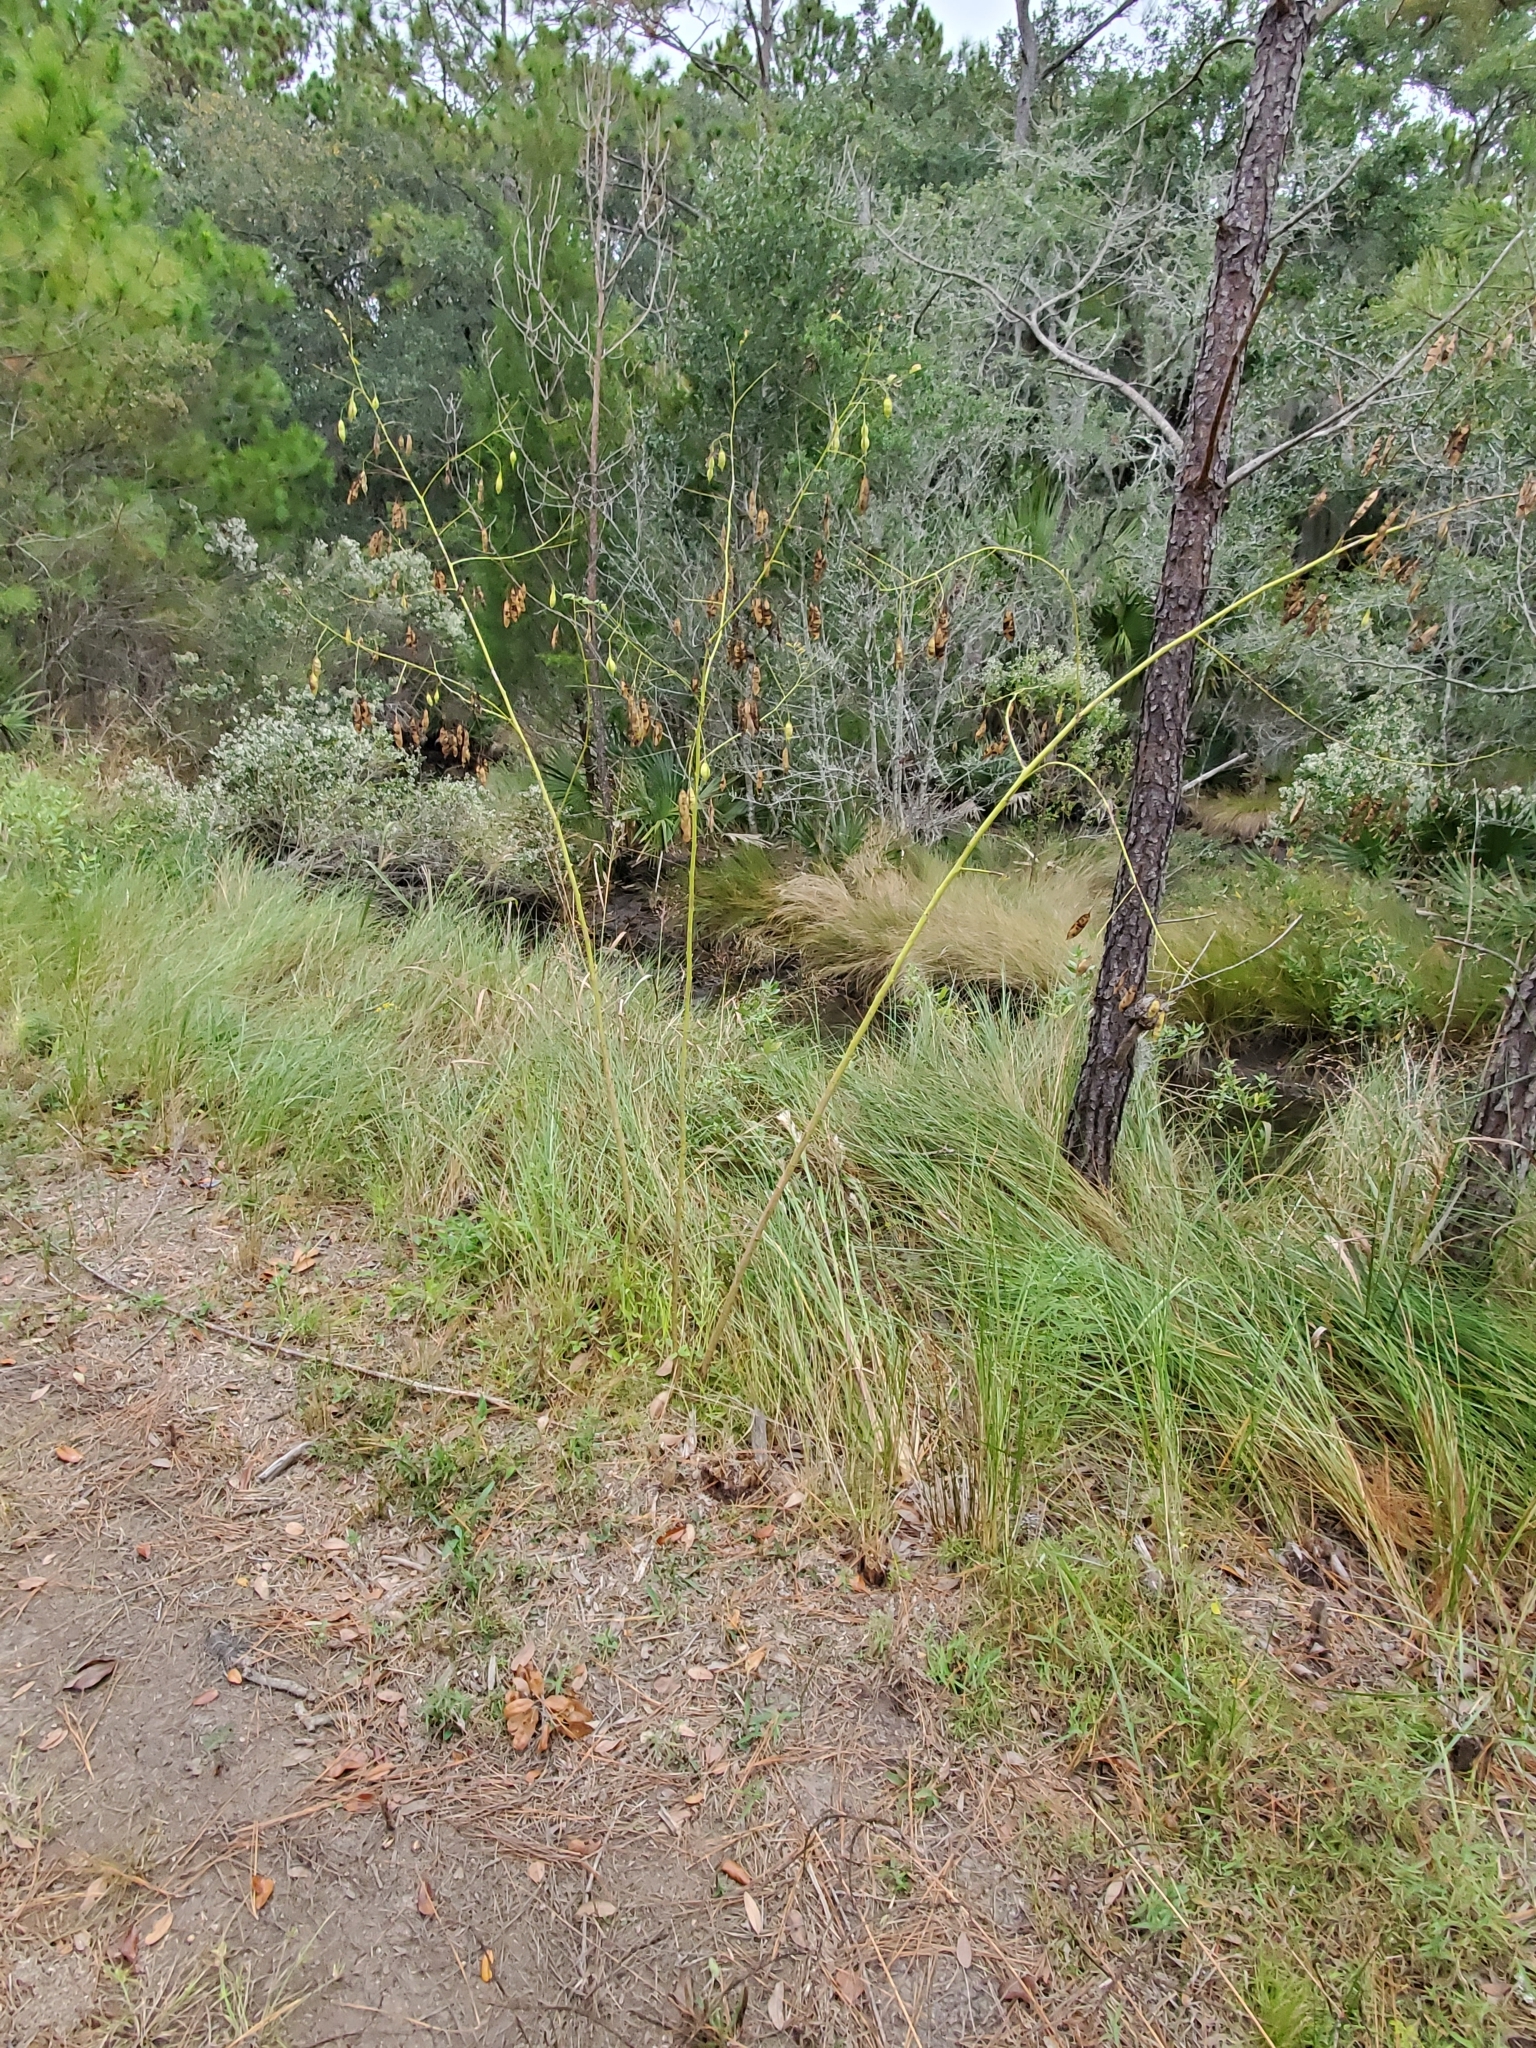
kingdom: Plantae
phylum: Tracheophyta
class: Magnoliopsida
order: Fabales
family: Fabaceae
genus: Sesbania
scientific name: Sesbania vesicaria
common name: Bagpod
